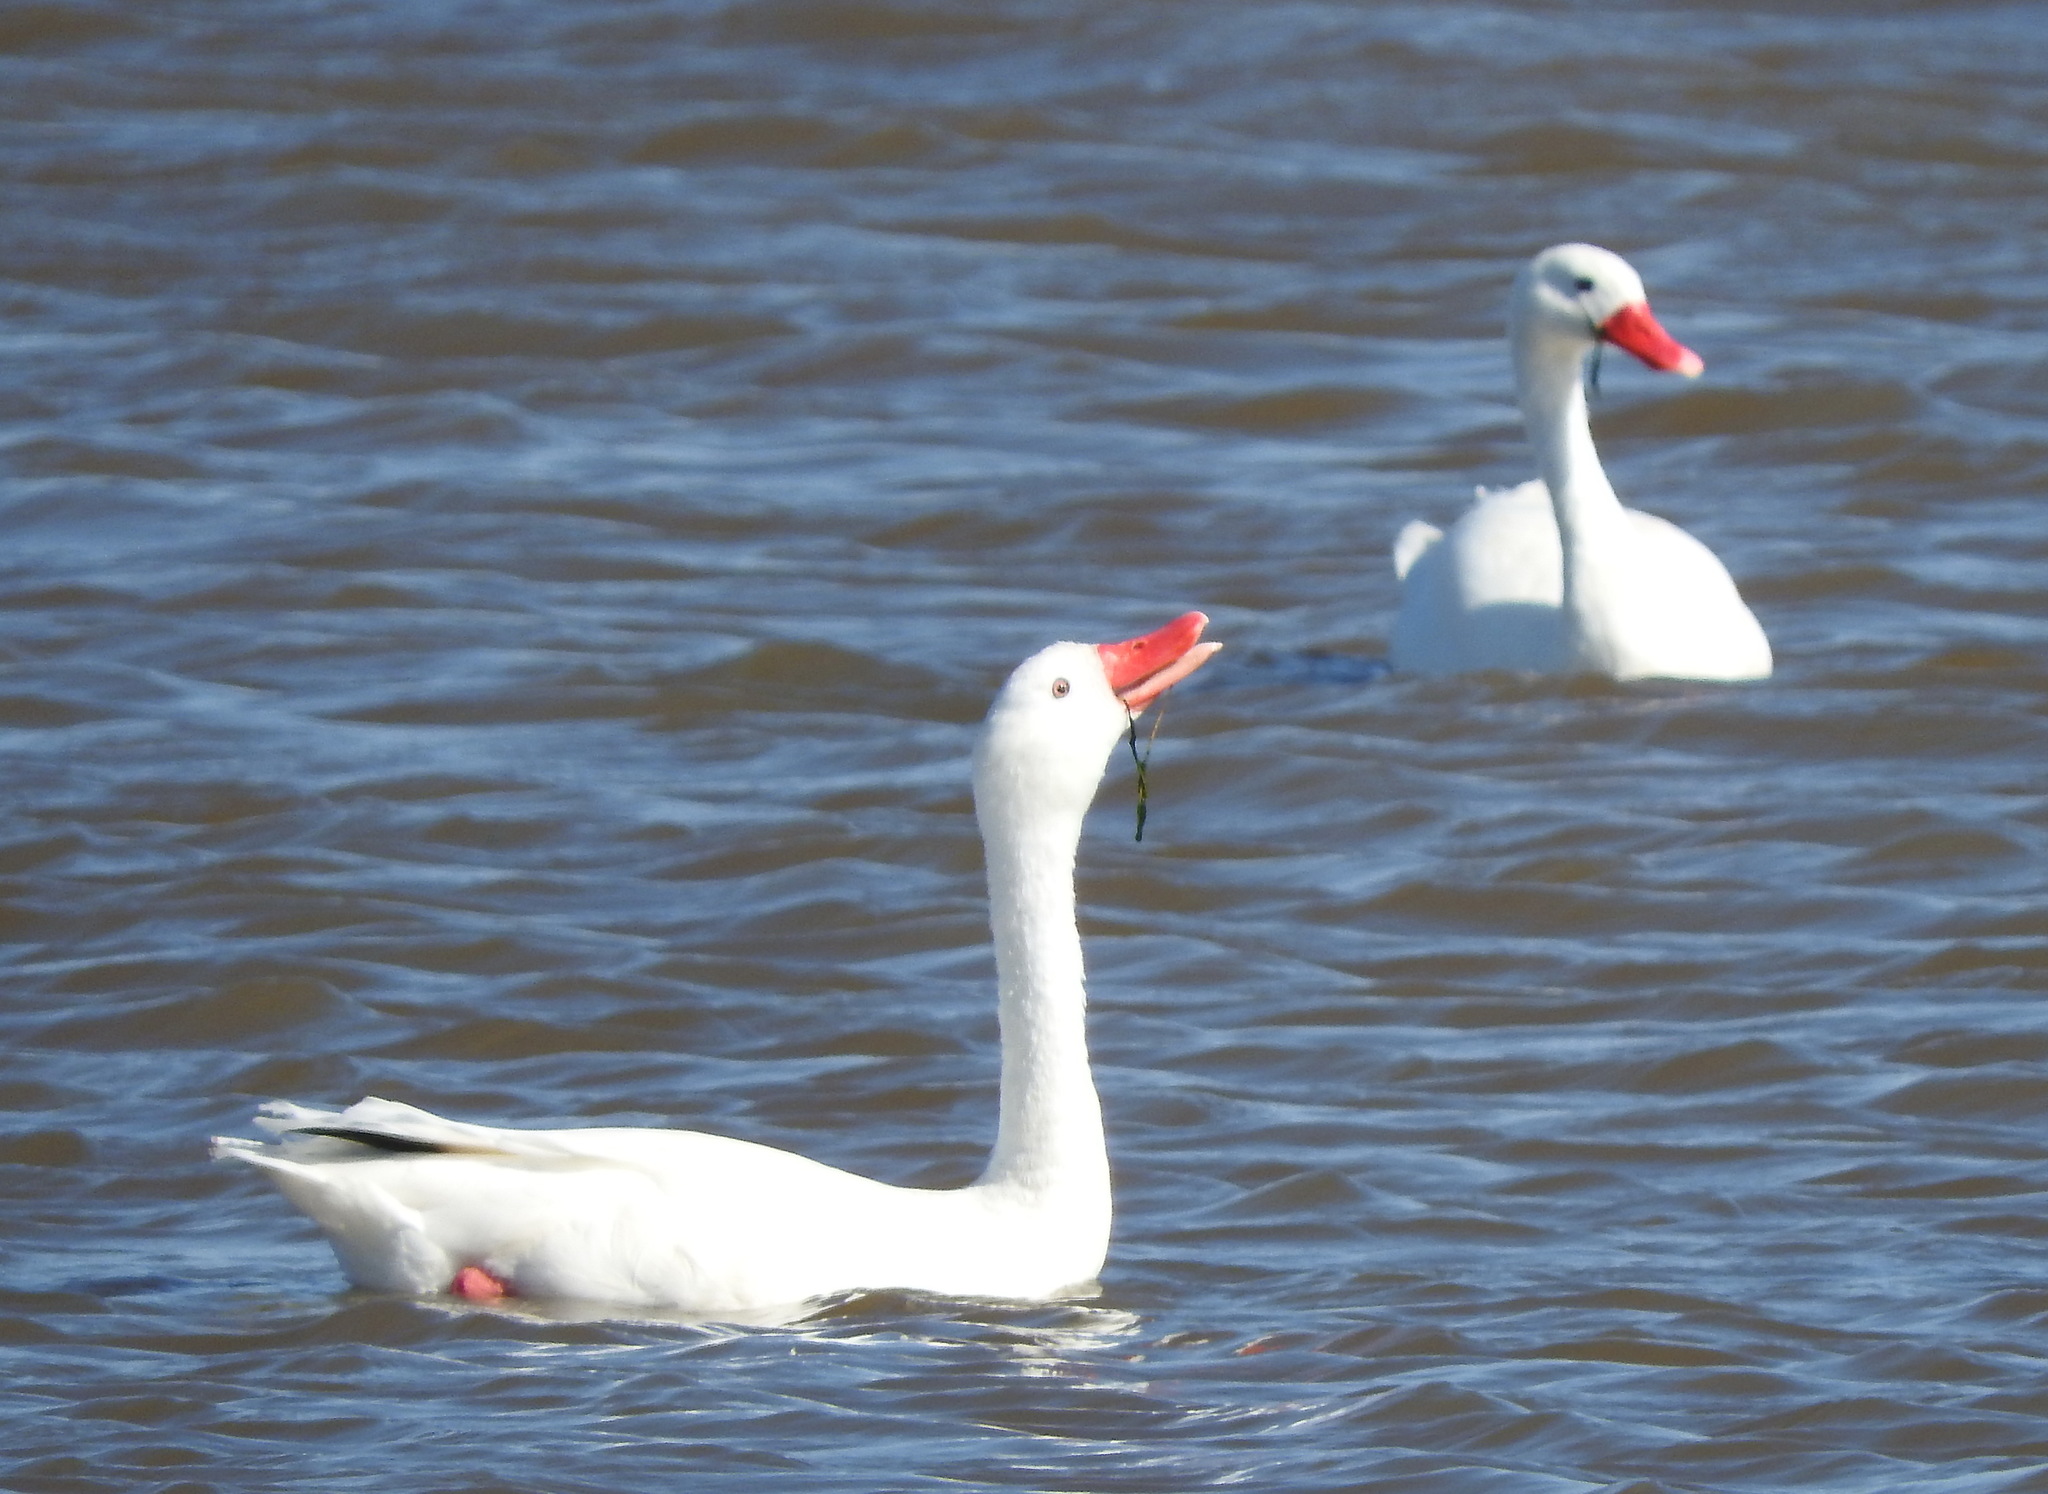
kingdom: Animalia
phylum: Chordata
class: Aves
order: Anseriformes
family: Anatidae
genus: Coscoroba
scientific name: Coscoroba coscoroba
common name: Coscoroba swan
